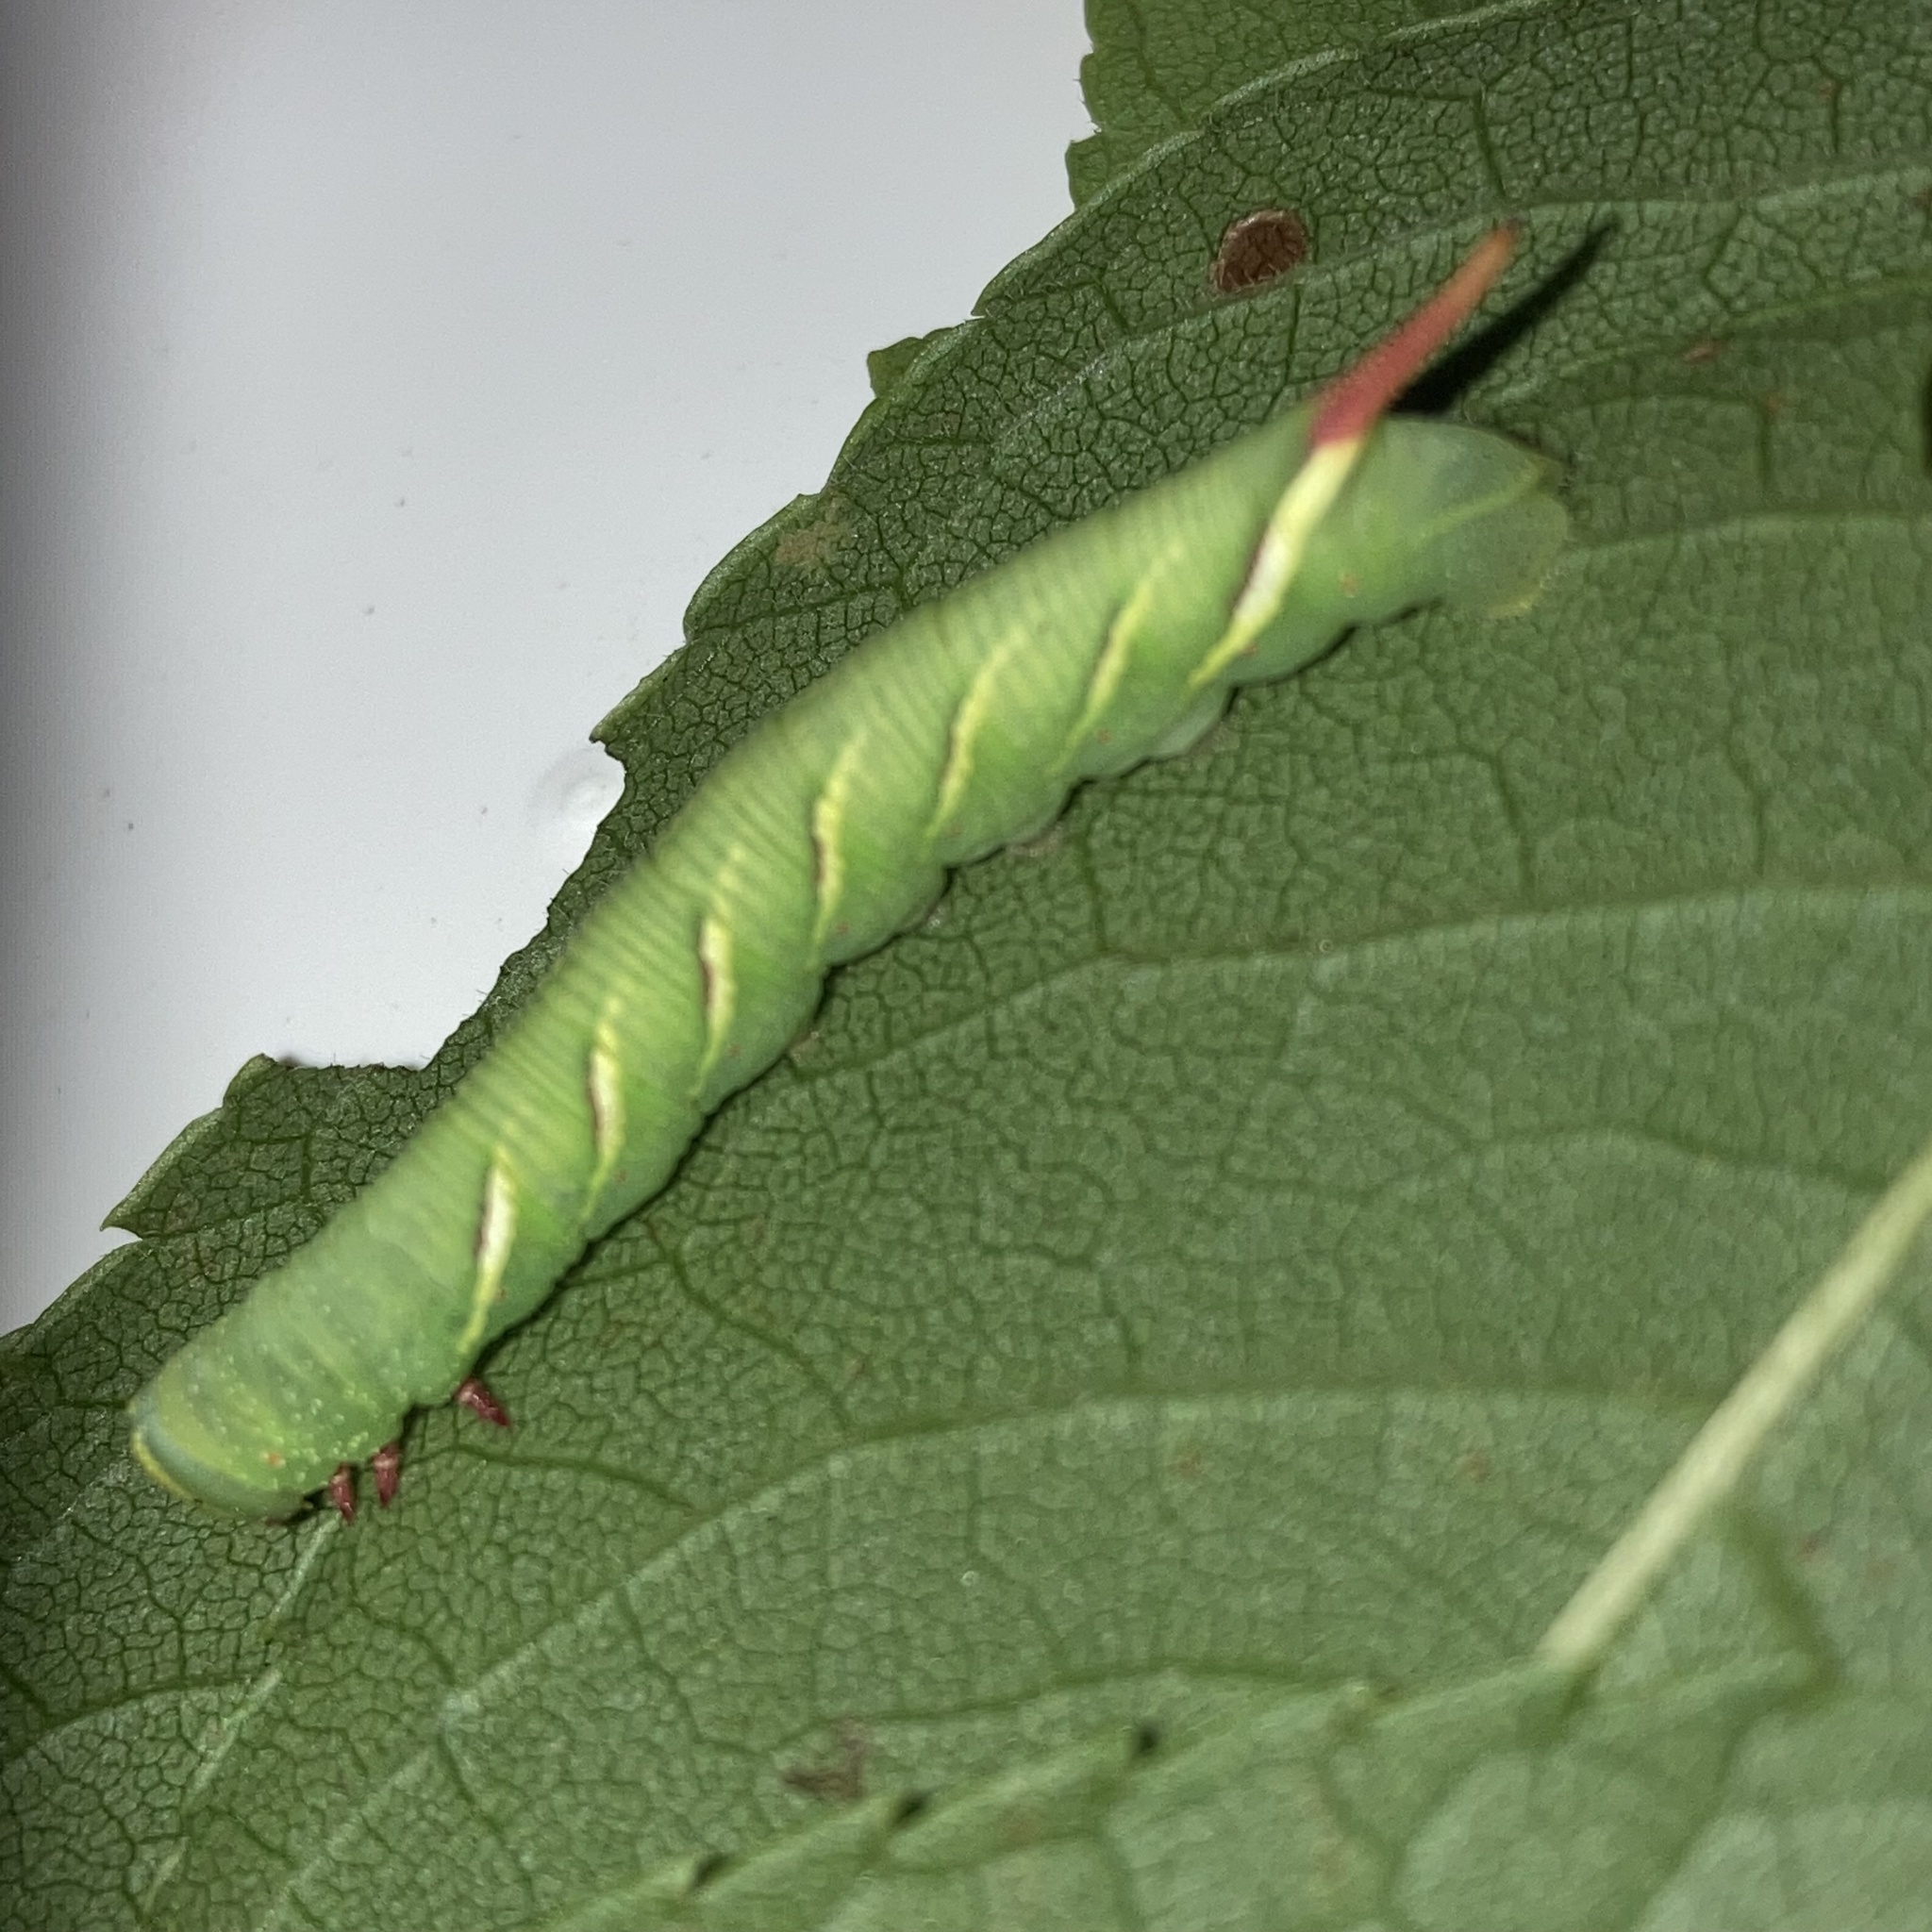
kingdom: Animalia
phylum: Arthropoda
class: Insecta
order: Lepidoptera
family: Sphingidae
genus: Ceratomia
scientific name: Ceratomia undulosa
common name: Waved sphinx
